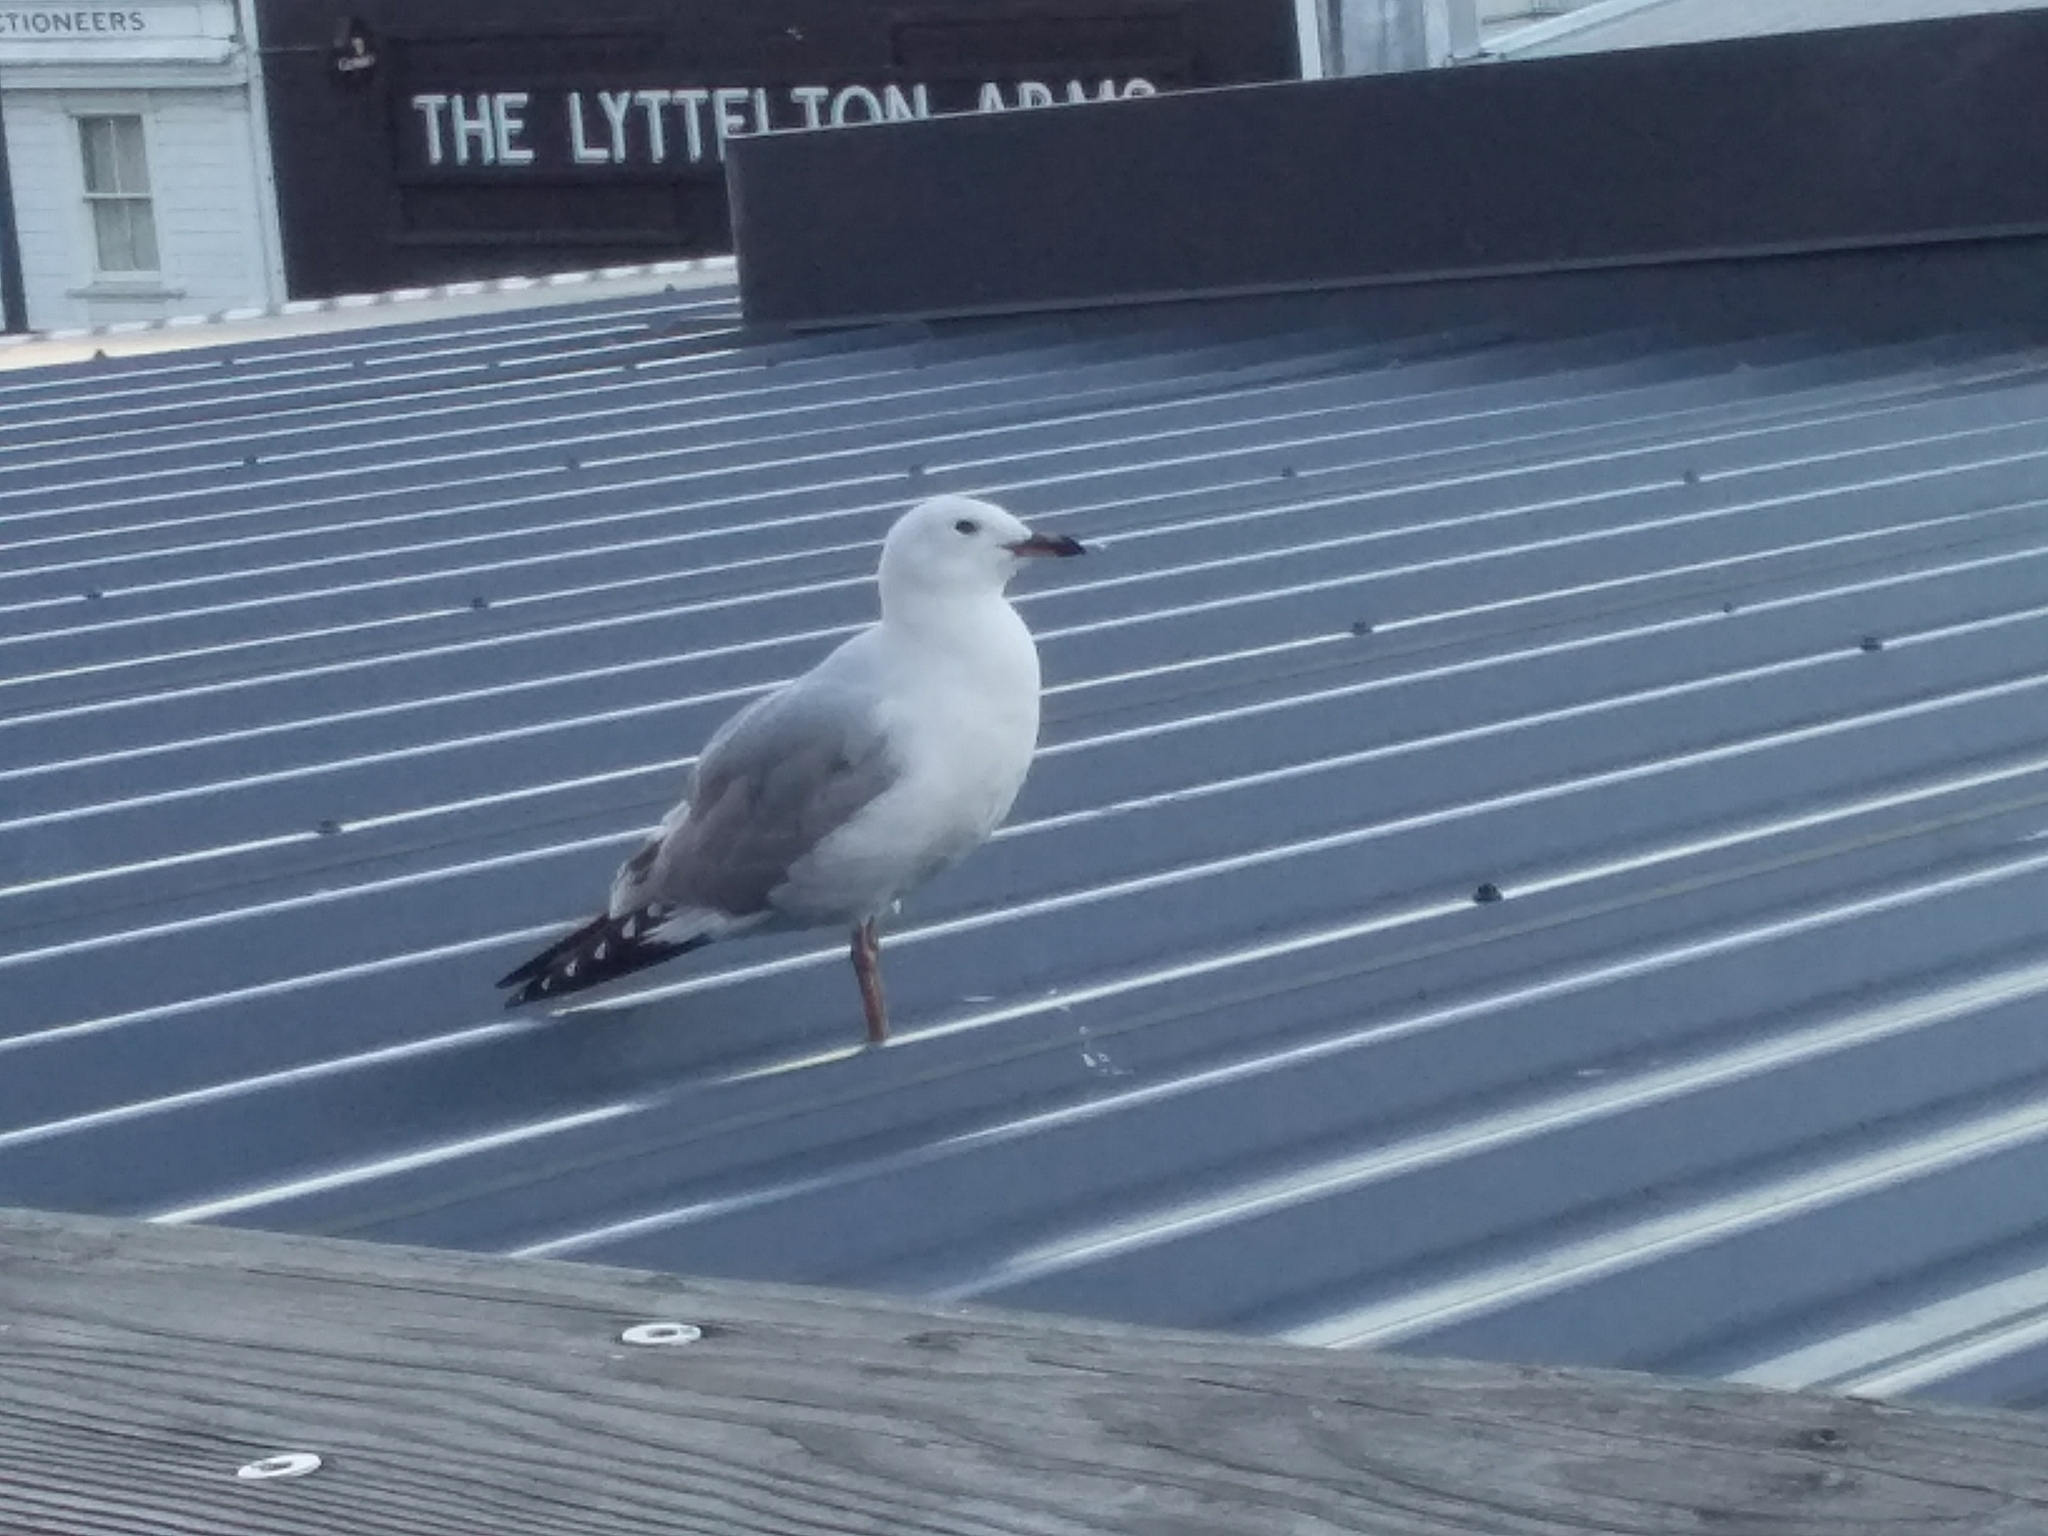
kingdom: Animalia
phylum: Chordata
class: Aves
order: Charadriiformes
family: Laridae
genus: Chroicocephalus
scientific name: Chroicocephalus novaehollandiae
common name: Silver gull
